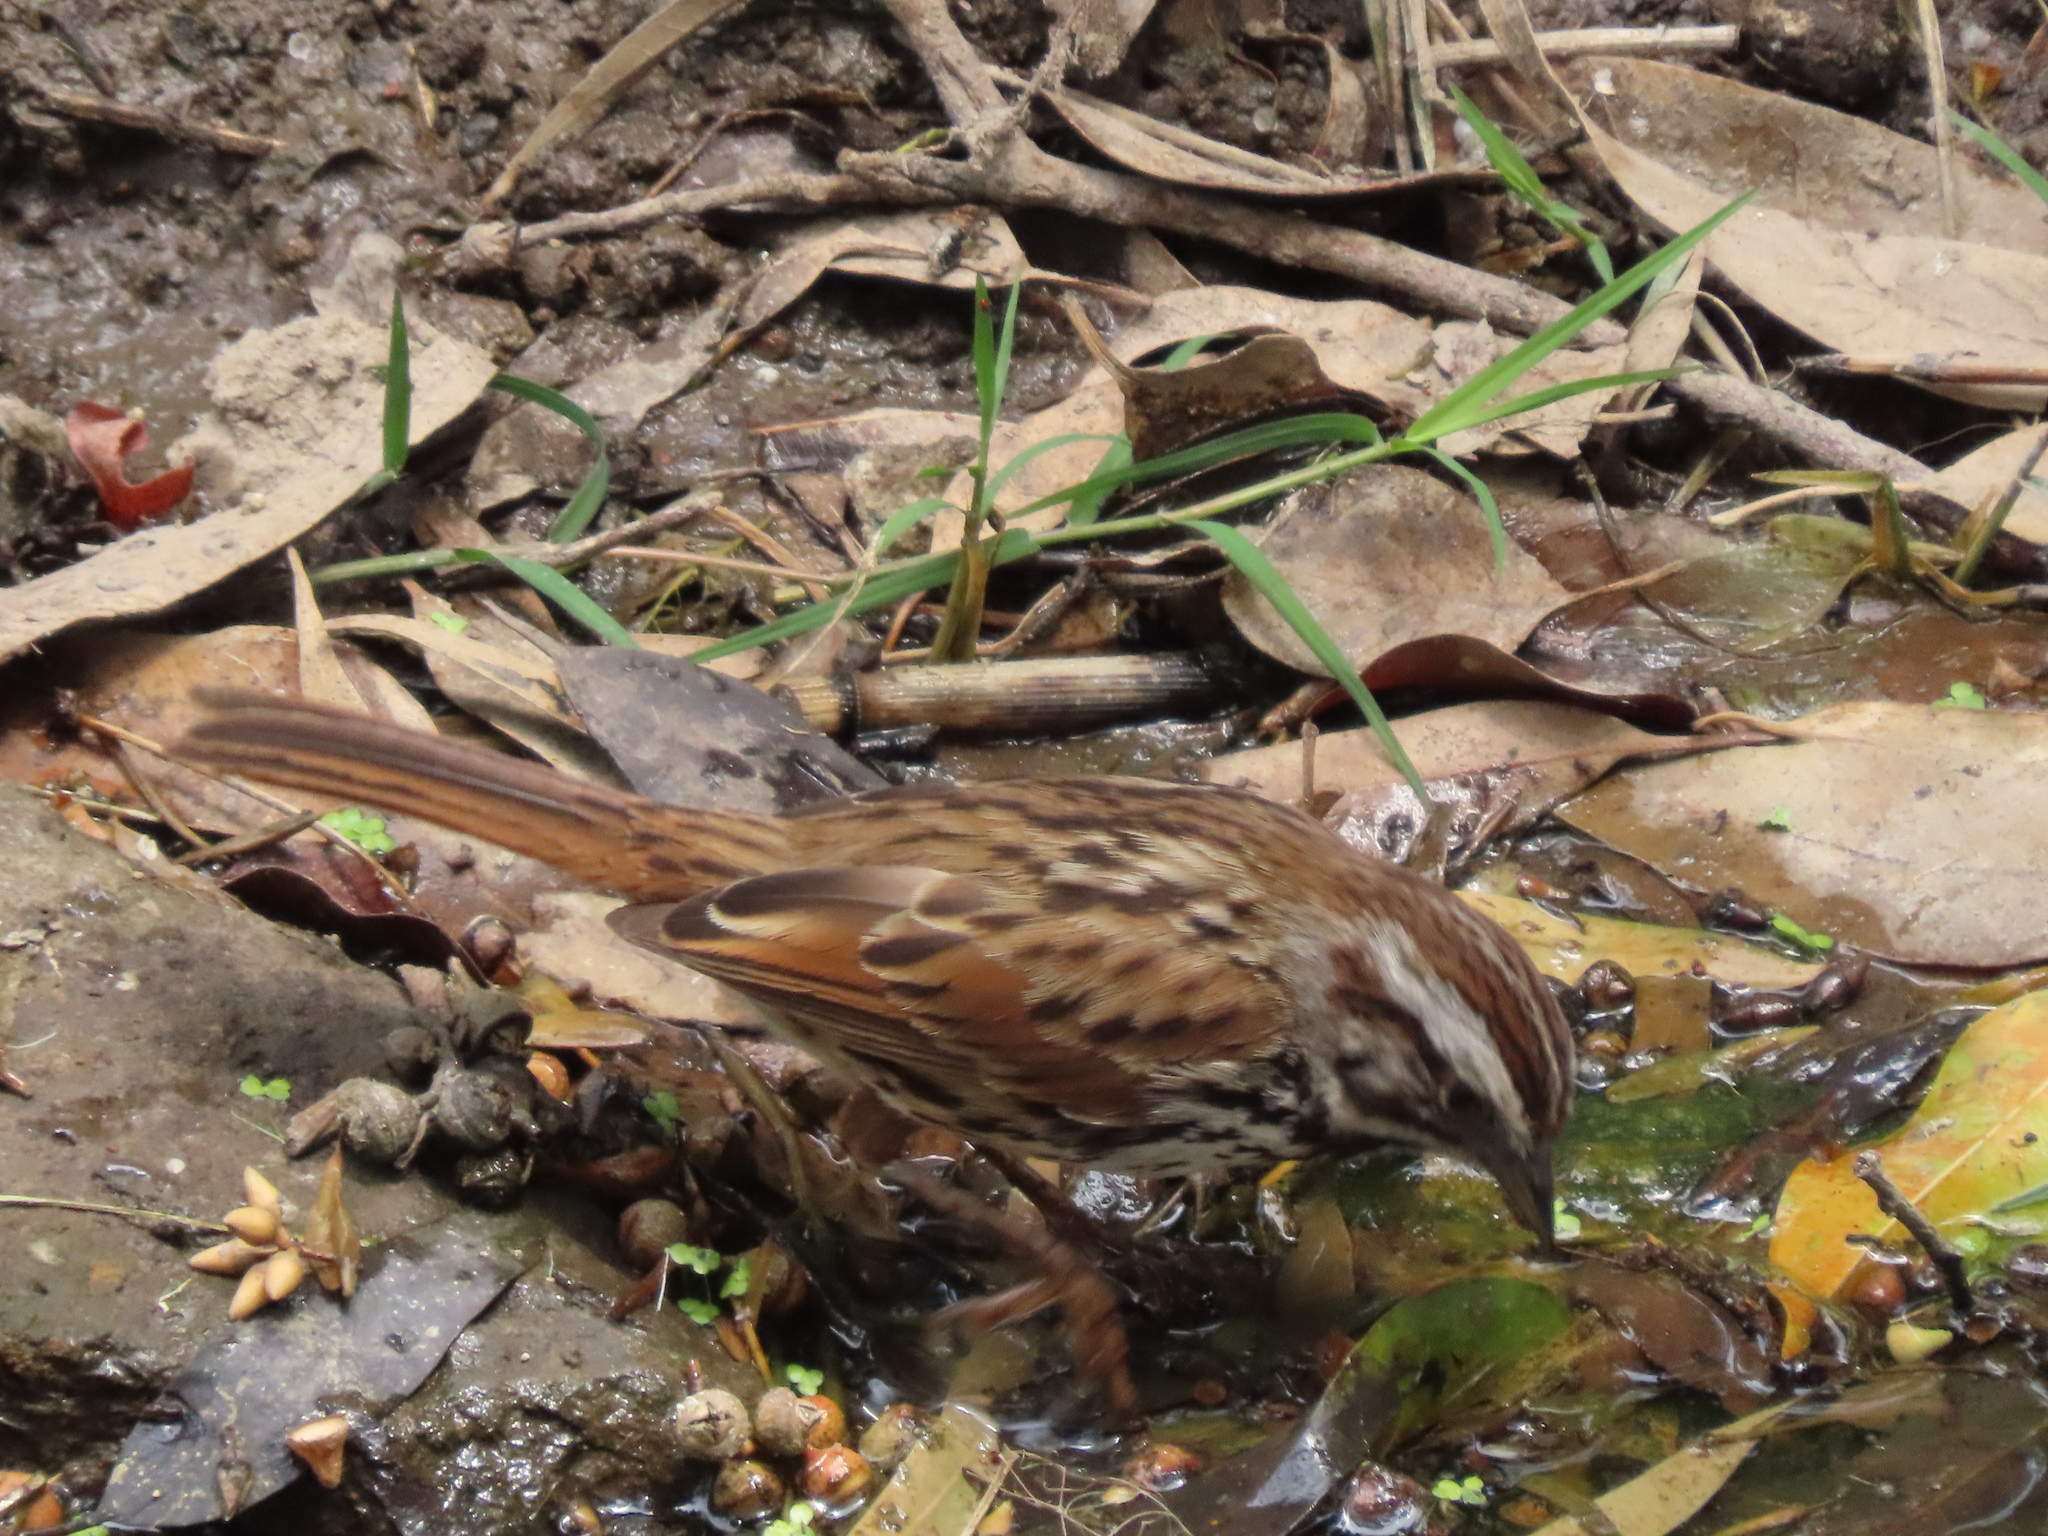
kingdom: Animalia
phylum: Chordata
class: Aves
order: Passeriformes
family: Passerellidae
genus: Melospiza
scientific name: Melospiza melodia
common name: Song sparrow
